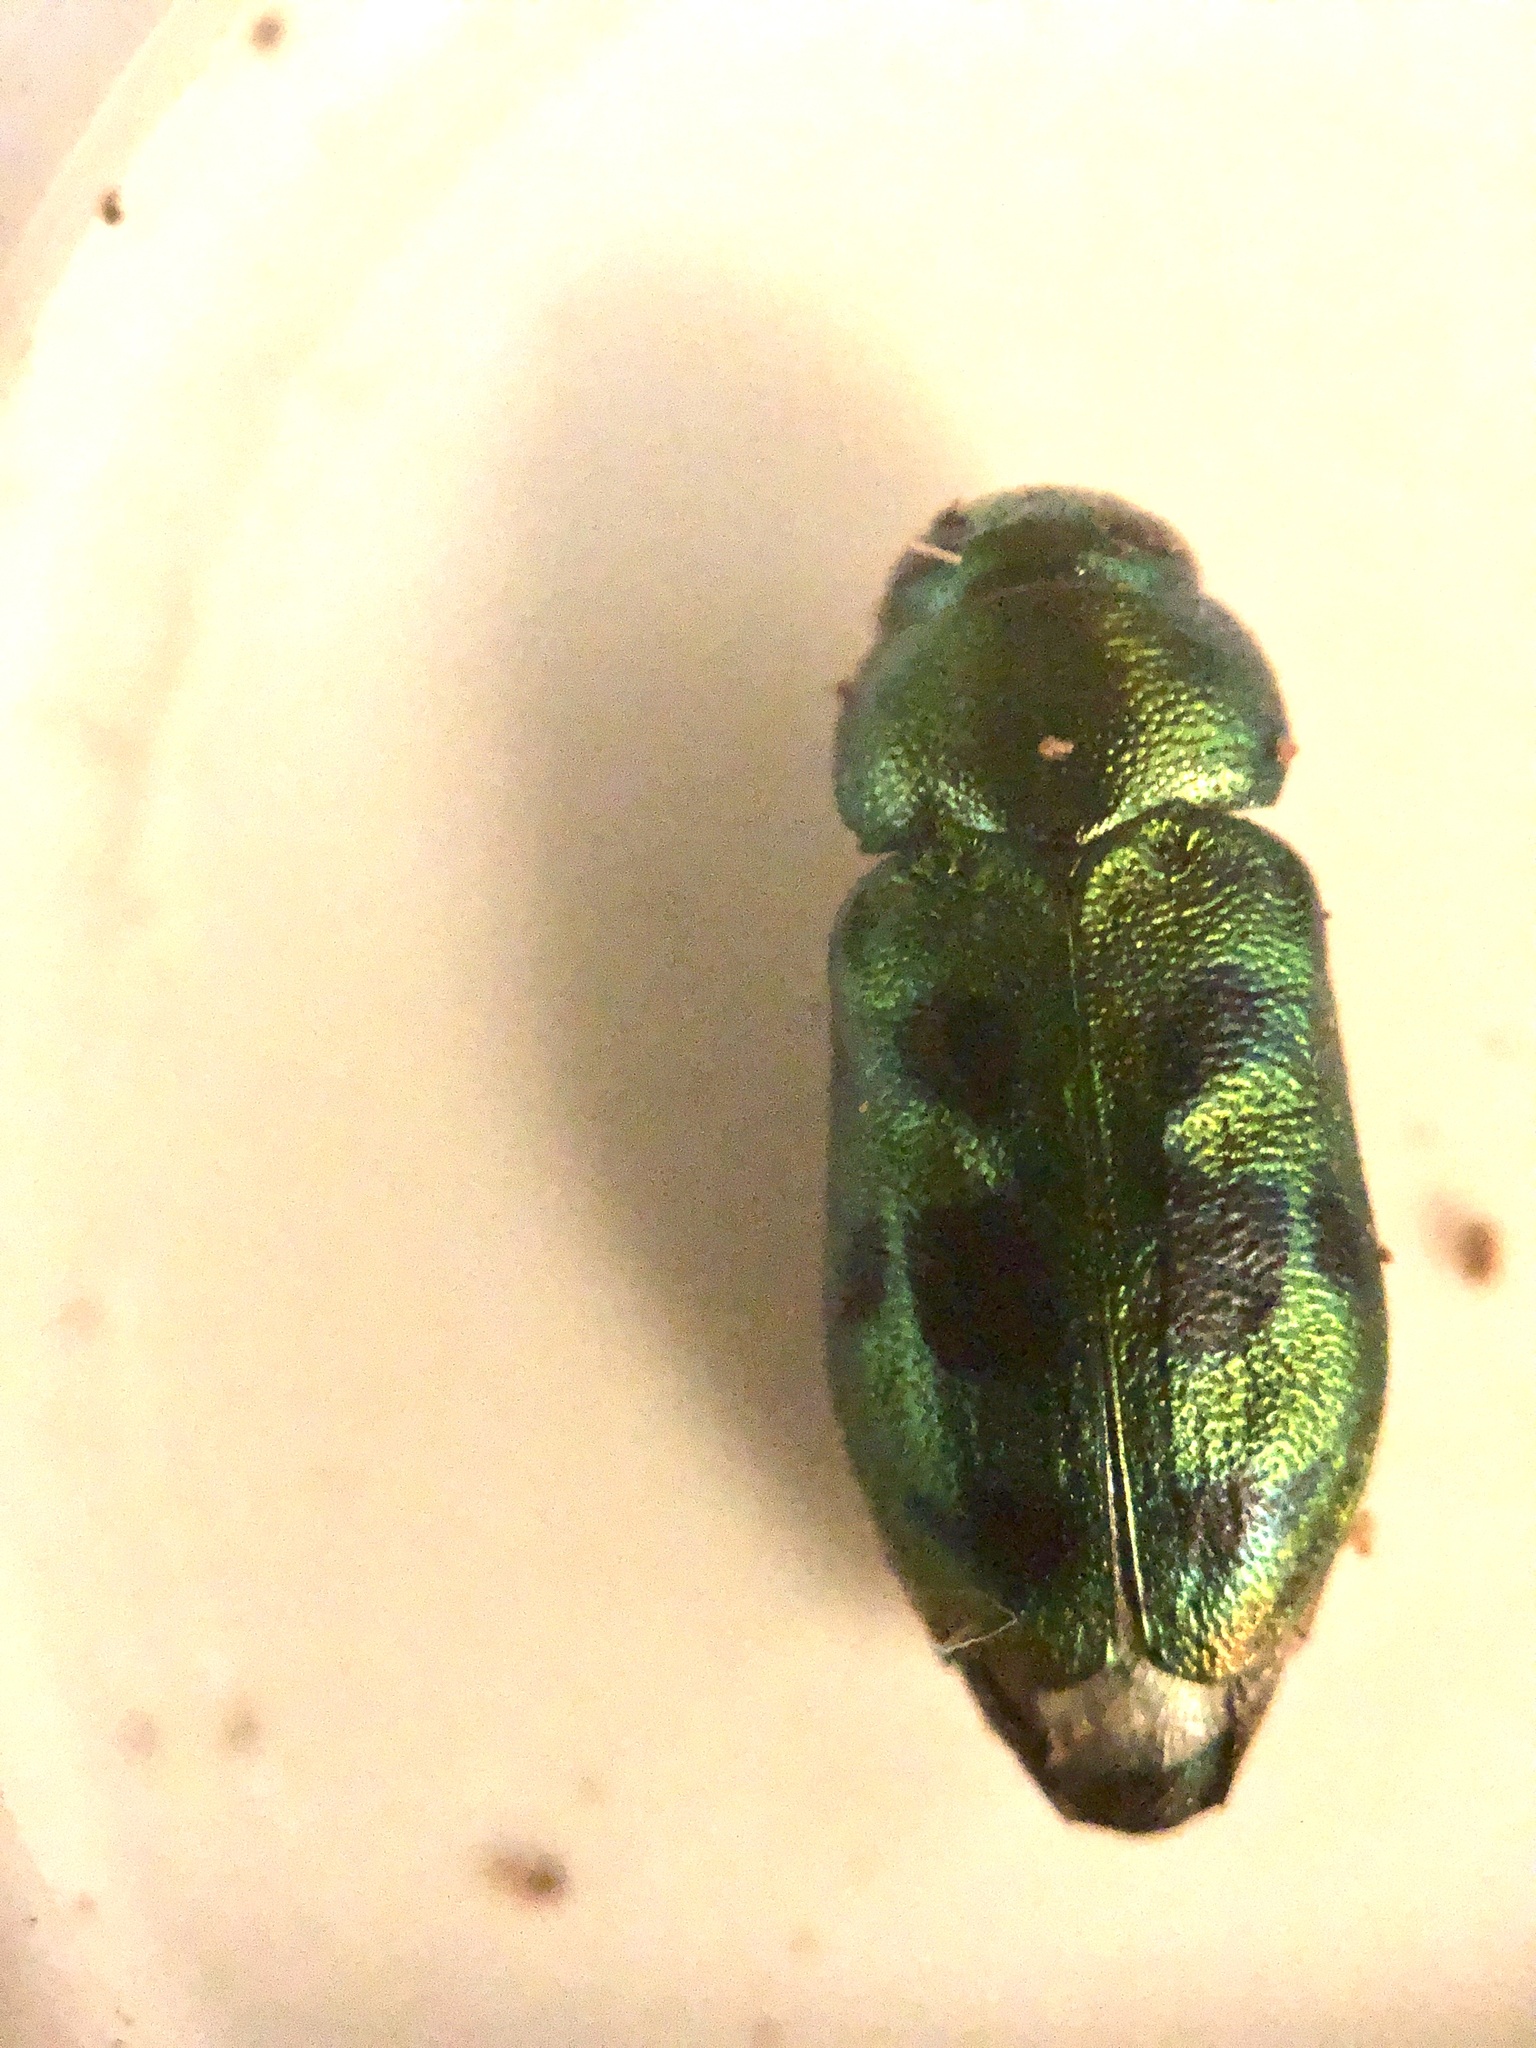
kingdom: Animalia
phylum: Arthropoda
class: Insecta
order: Coleoptera
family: Buprestidae
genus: Knowltonia
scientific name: Knowltonia calida
